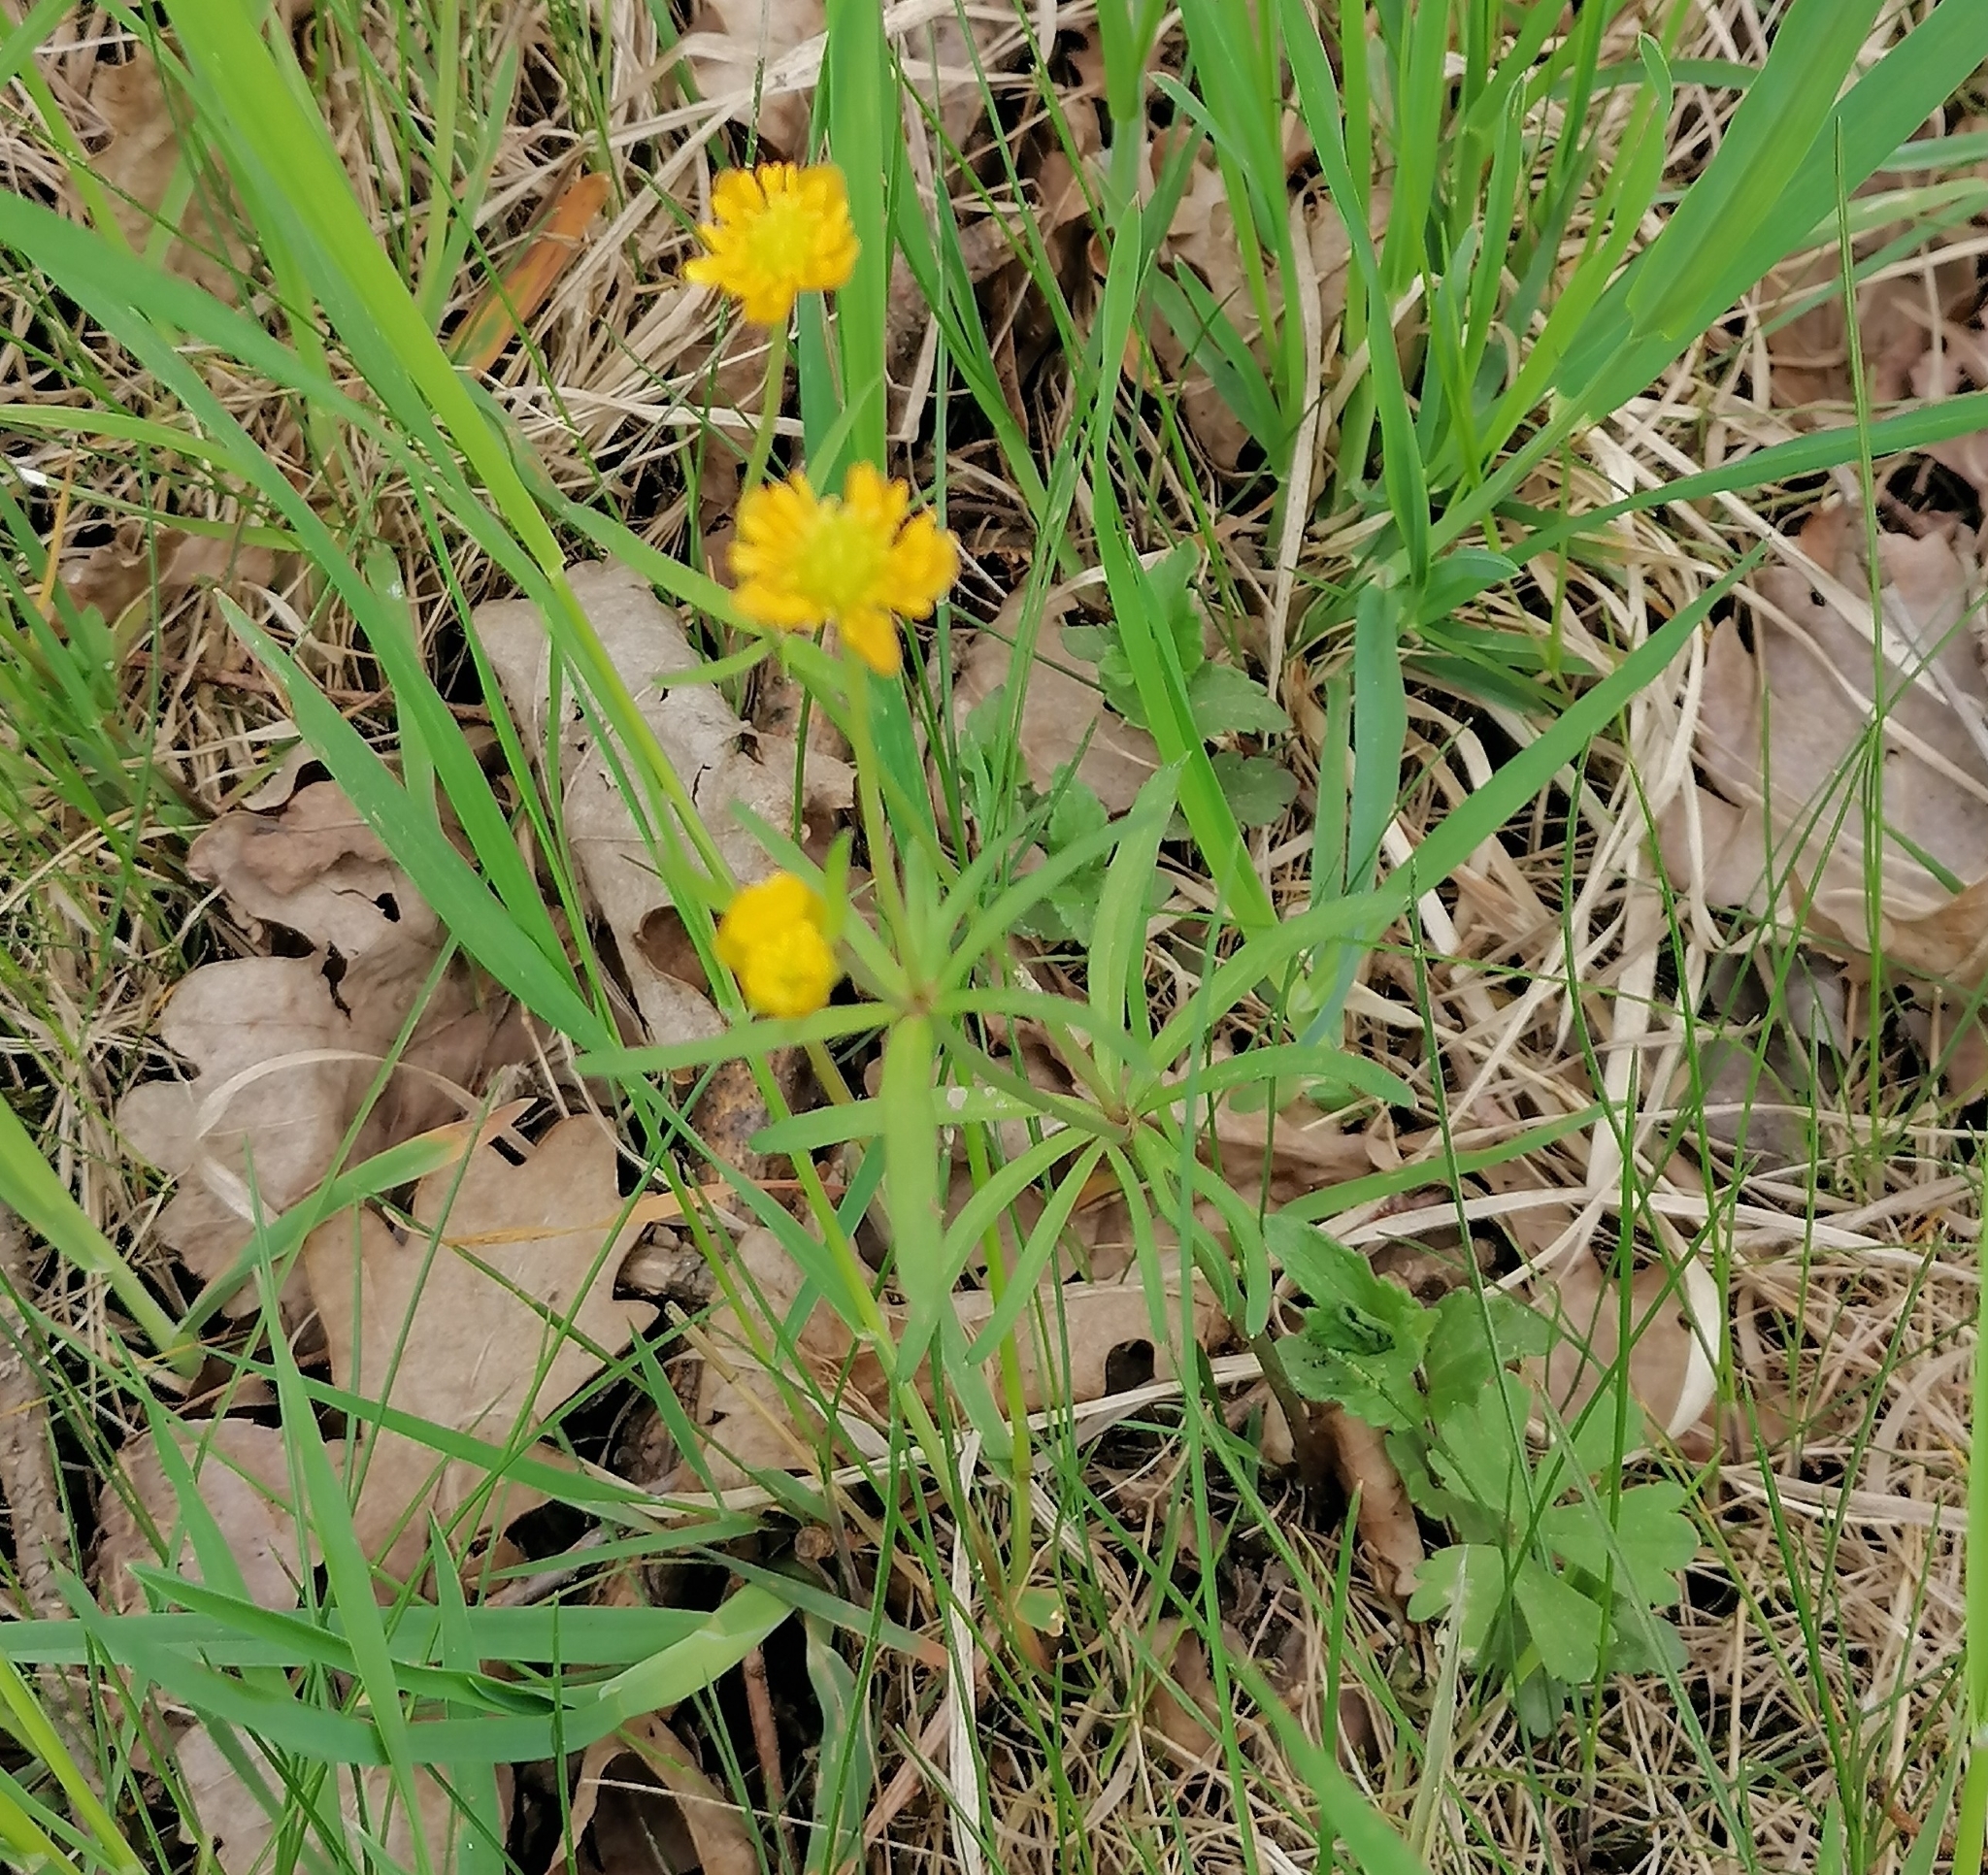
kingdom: Plantae
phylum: Tracheophyta
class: Magnoliopsida
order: Ranunculales
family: Ranunculaceae
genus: Ranunculus
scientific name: Ranunculus auricomus
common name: Goldilocks buttercup
